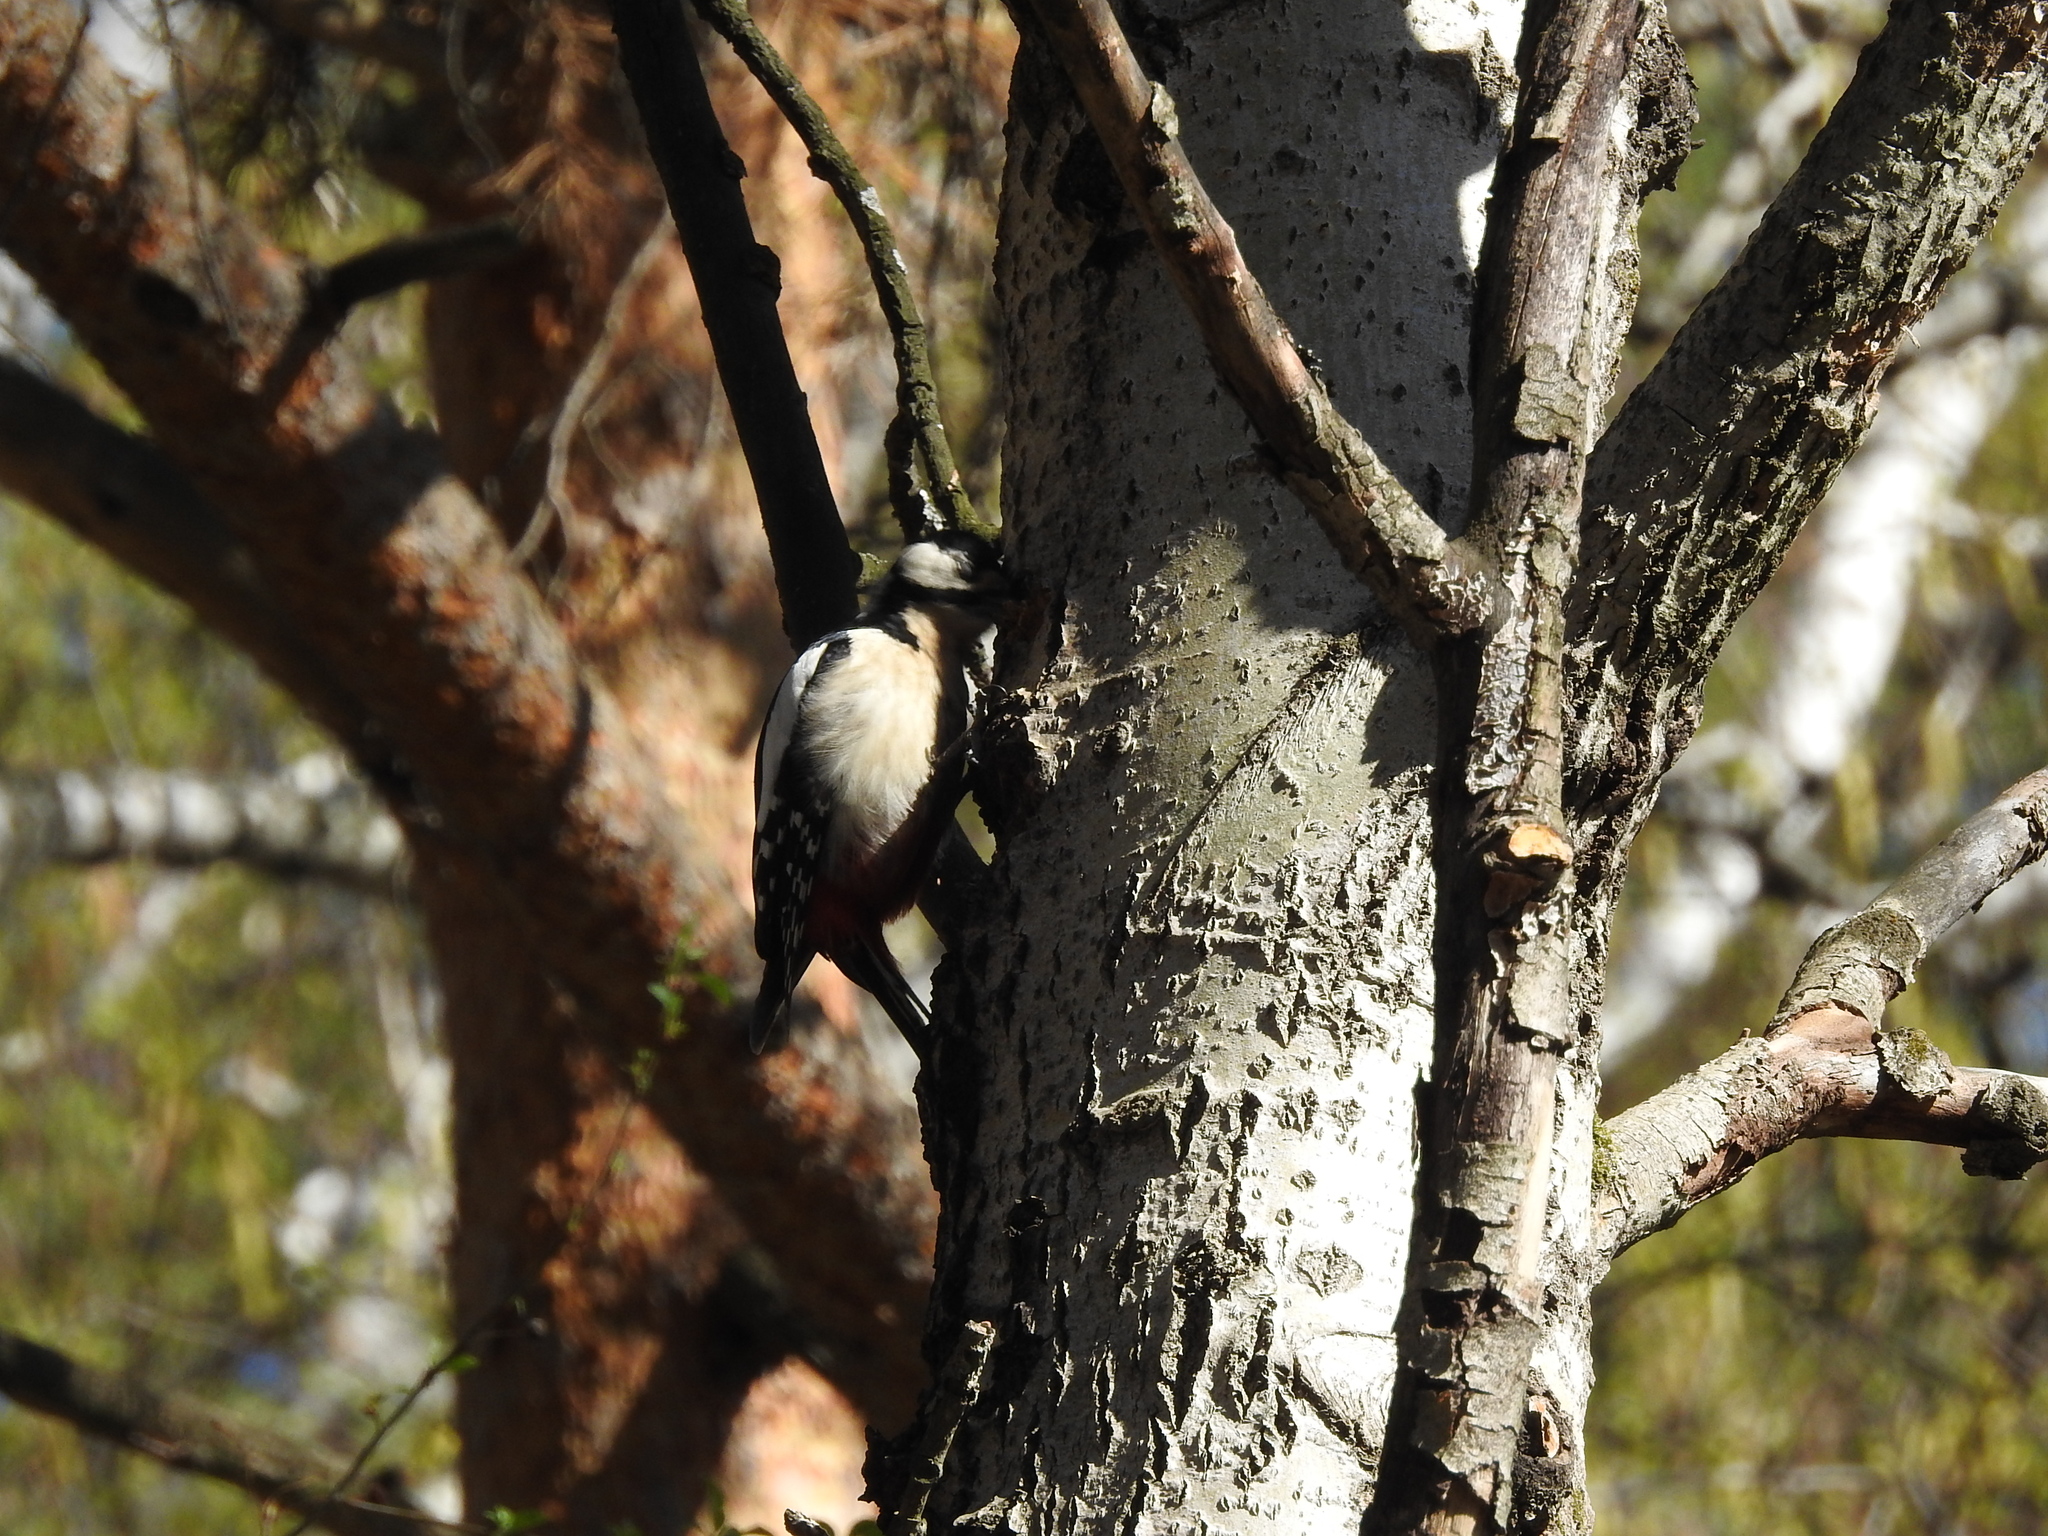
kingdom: Animalia
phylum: Chordata
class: Aves
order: Piciformes
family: Picidae
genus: Dendrocopos
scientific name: Dendrocopos major
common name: Great spotted woodpecker
